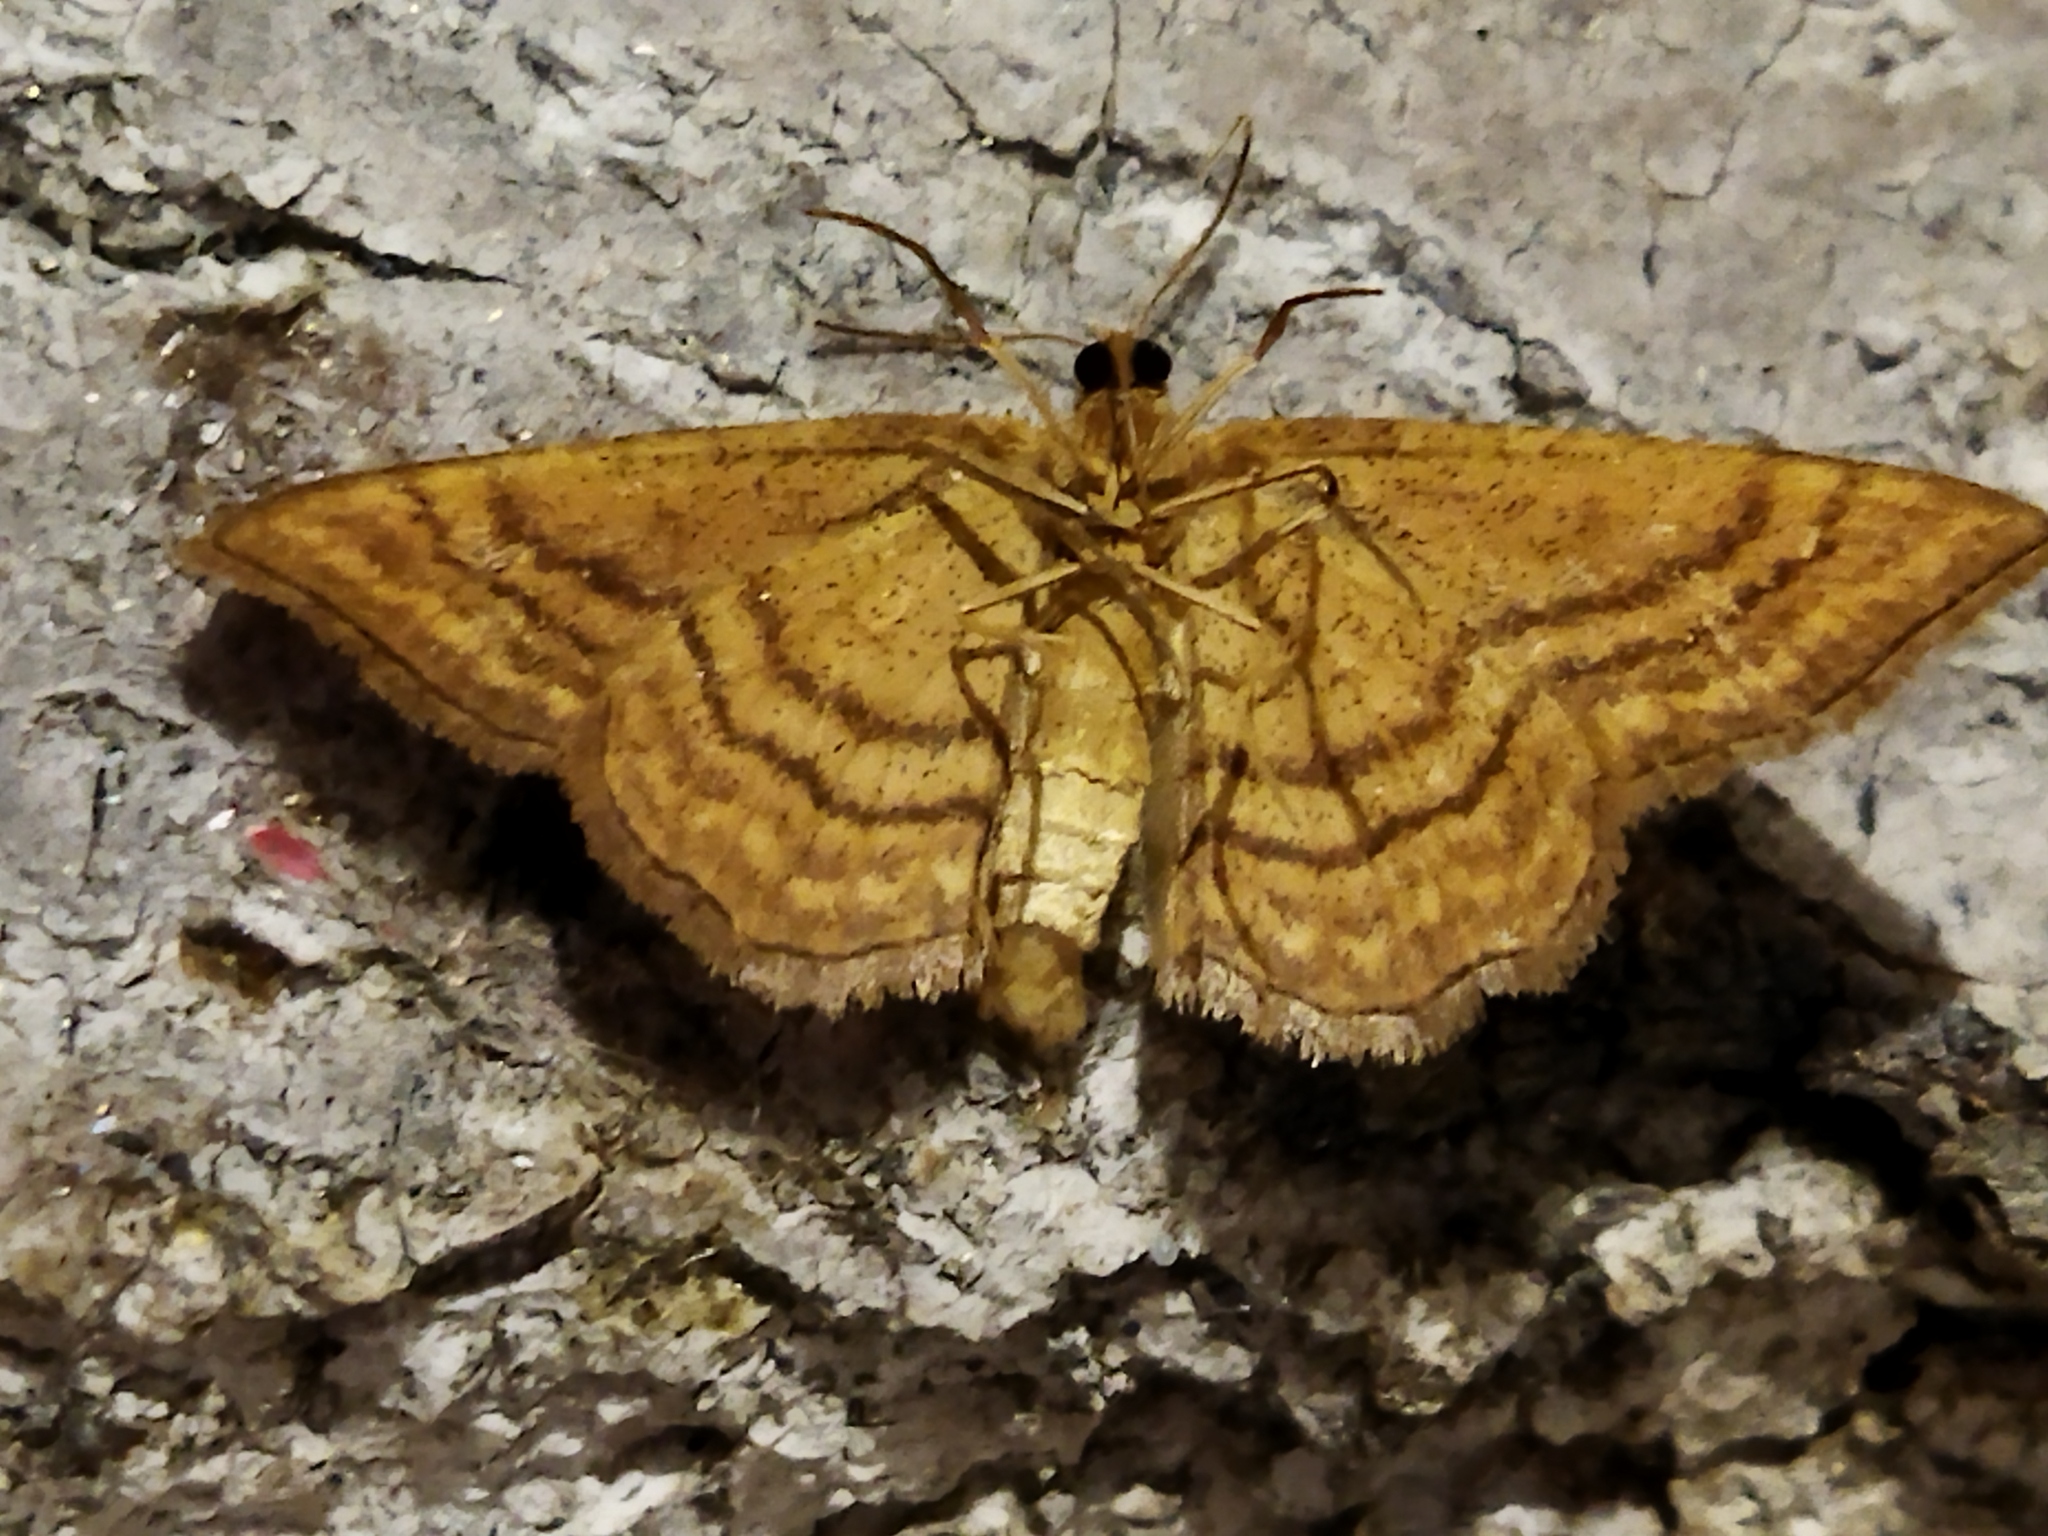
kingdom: Animalia
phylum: Arthropoda
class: Insecta
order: Lepidoptera
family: Geometridae
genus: Idaea
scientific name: Idaea ochrata
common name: Bright wave
